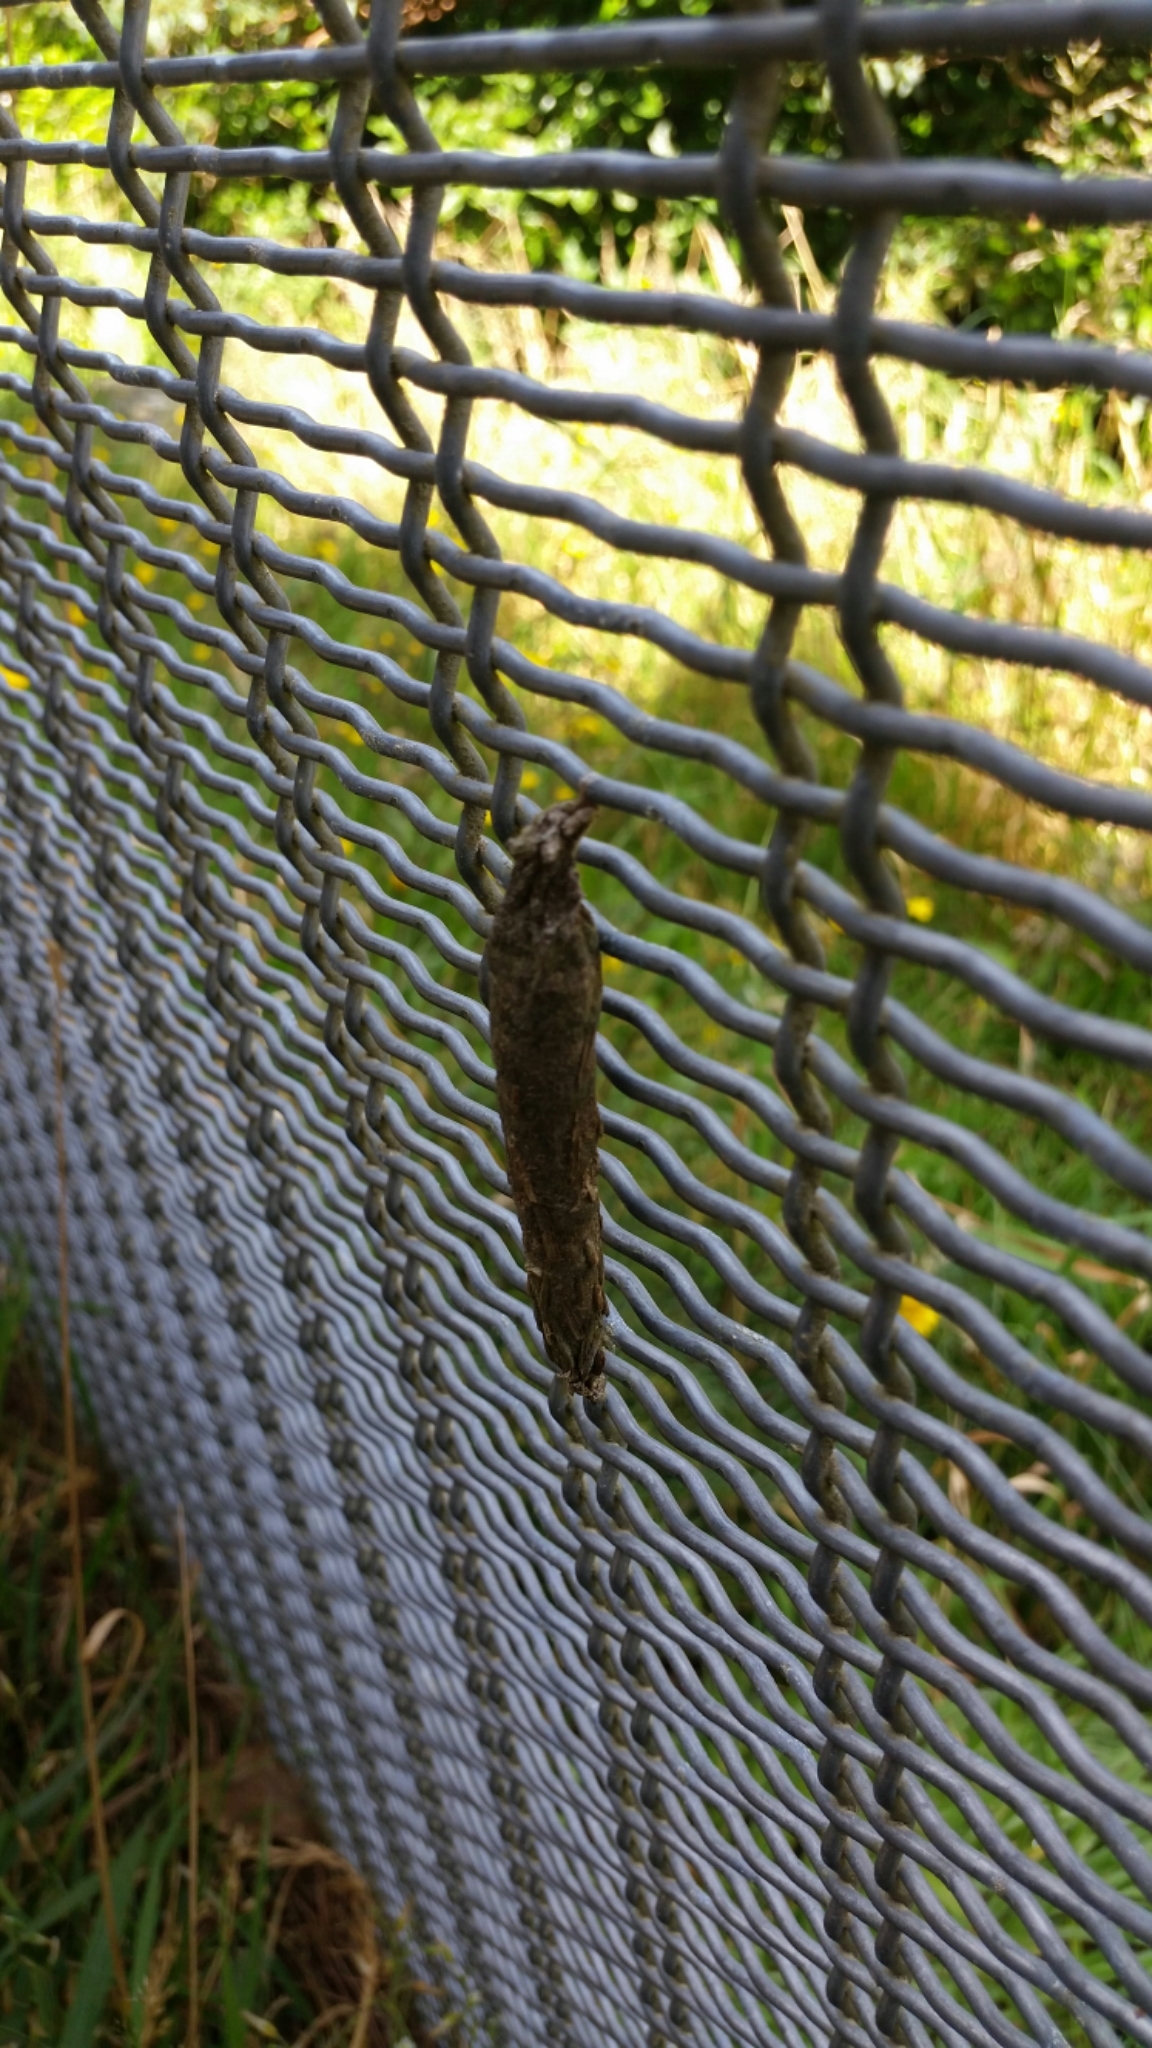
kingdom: Animalia
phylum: Arthropoda
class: Insecta
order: Lepidoptera
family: Psychidae
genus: Liothula
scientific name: Liothula omnivora
